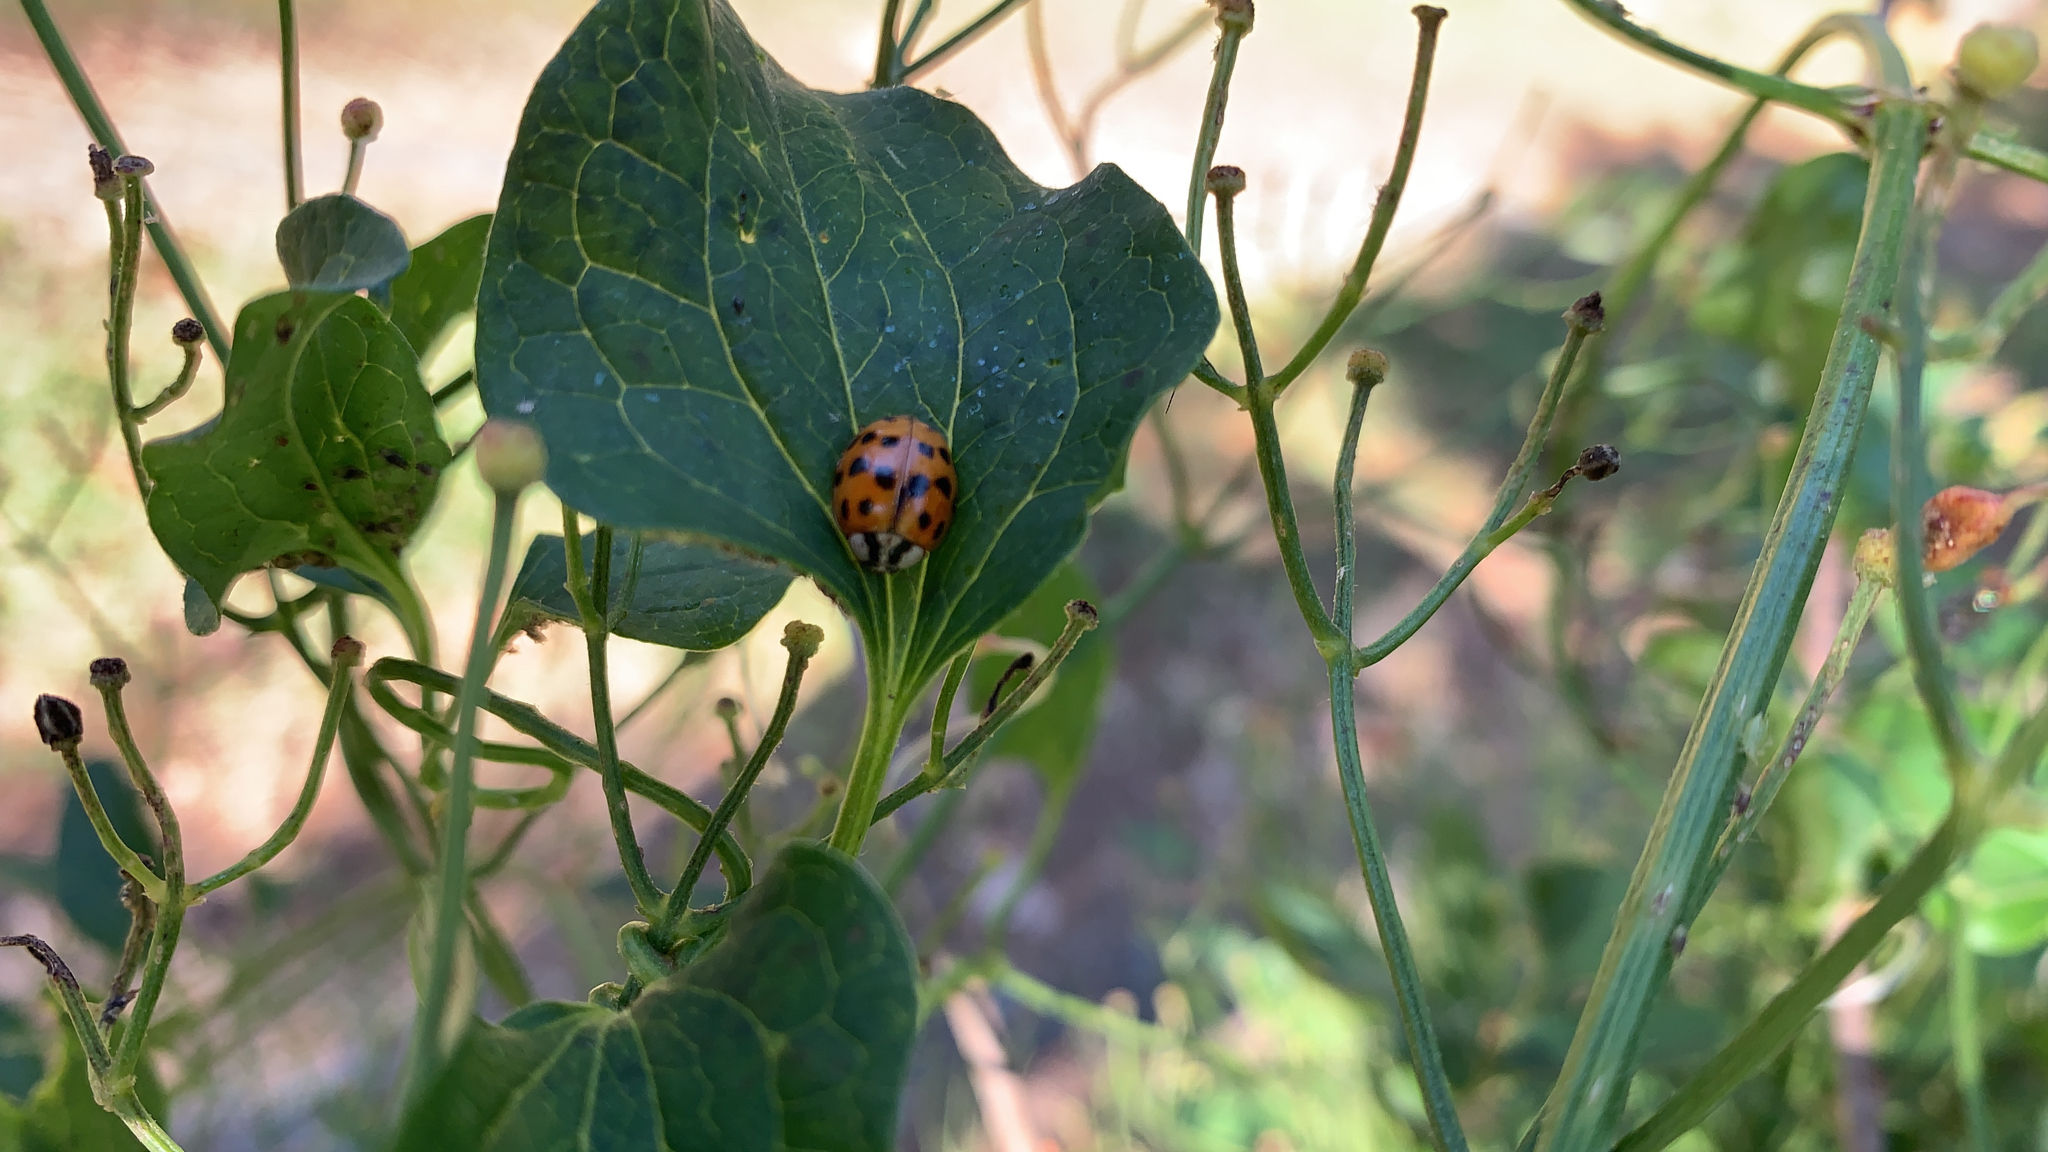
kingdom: Animalia
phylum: Arthropoda
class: Insecta
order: Coleoptera
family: Coccinellidae
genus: Harmonia
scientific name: Harmonia axyridis
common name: Harlequin ladybird
